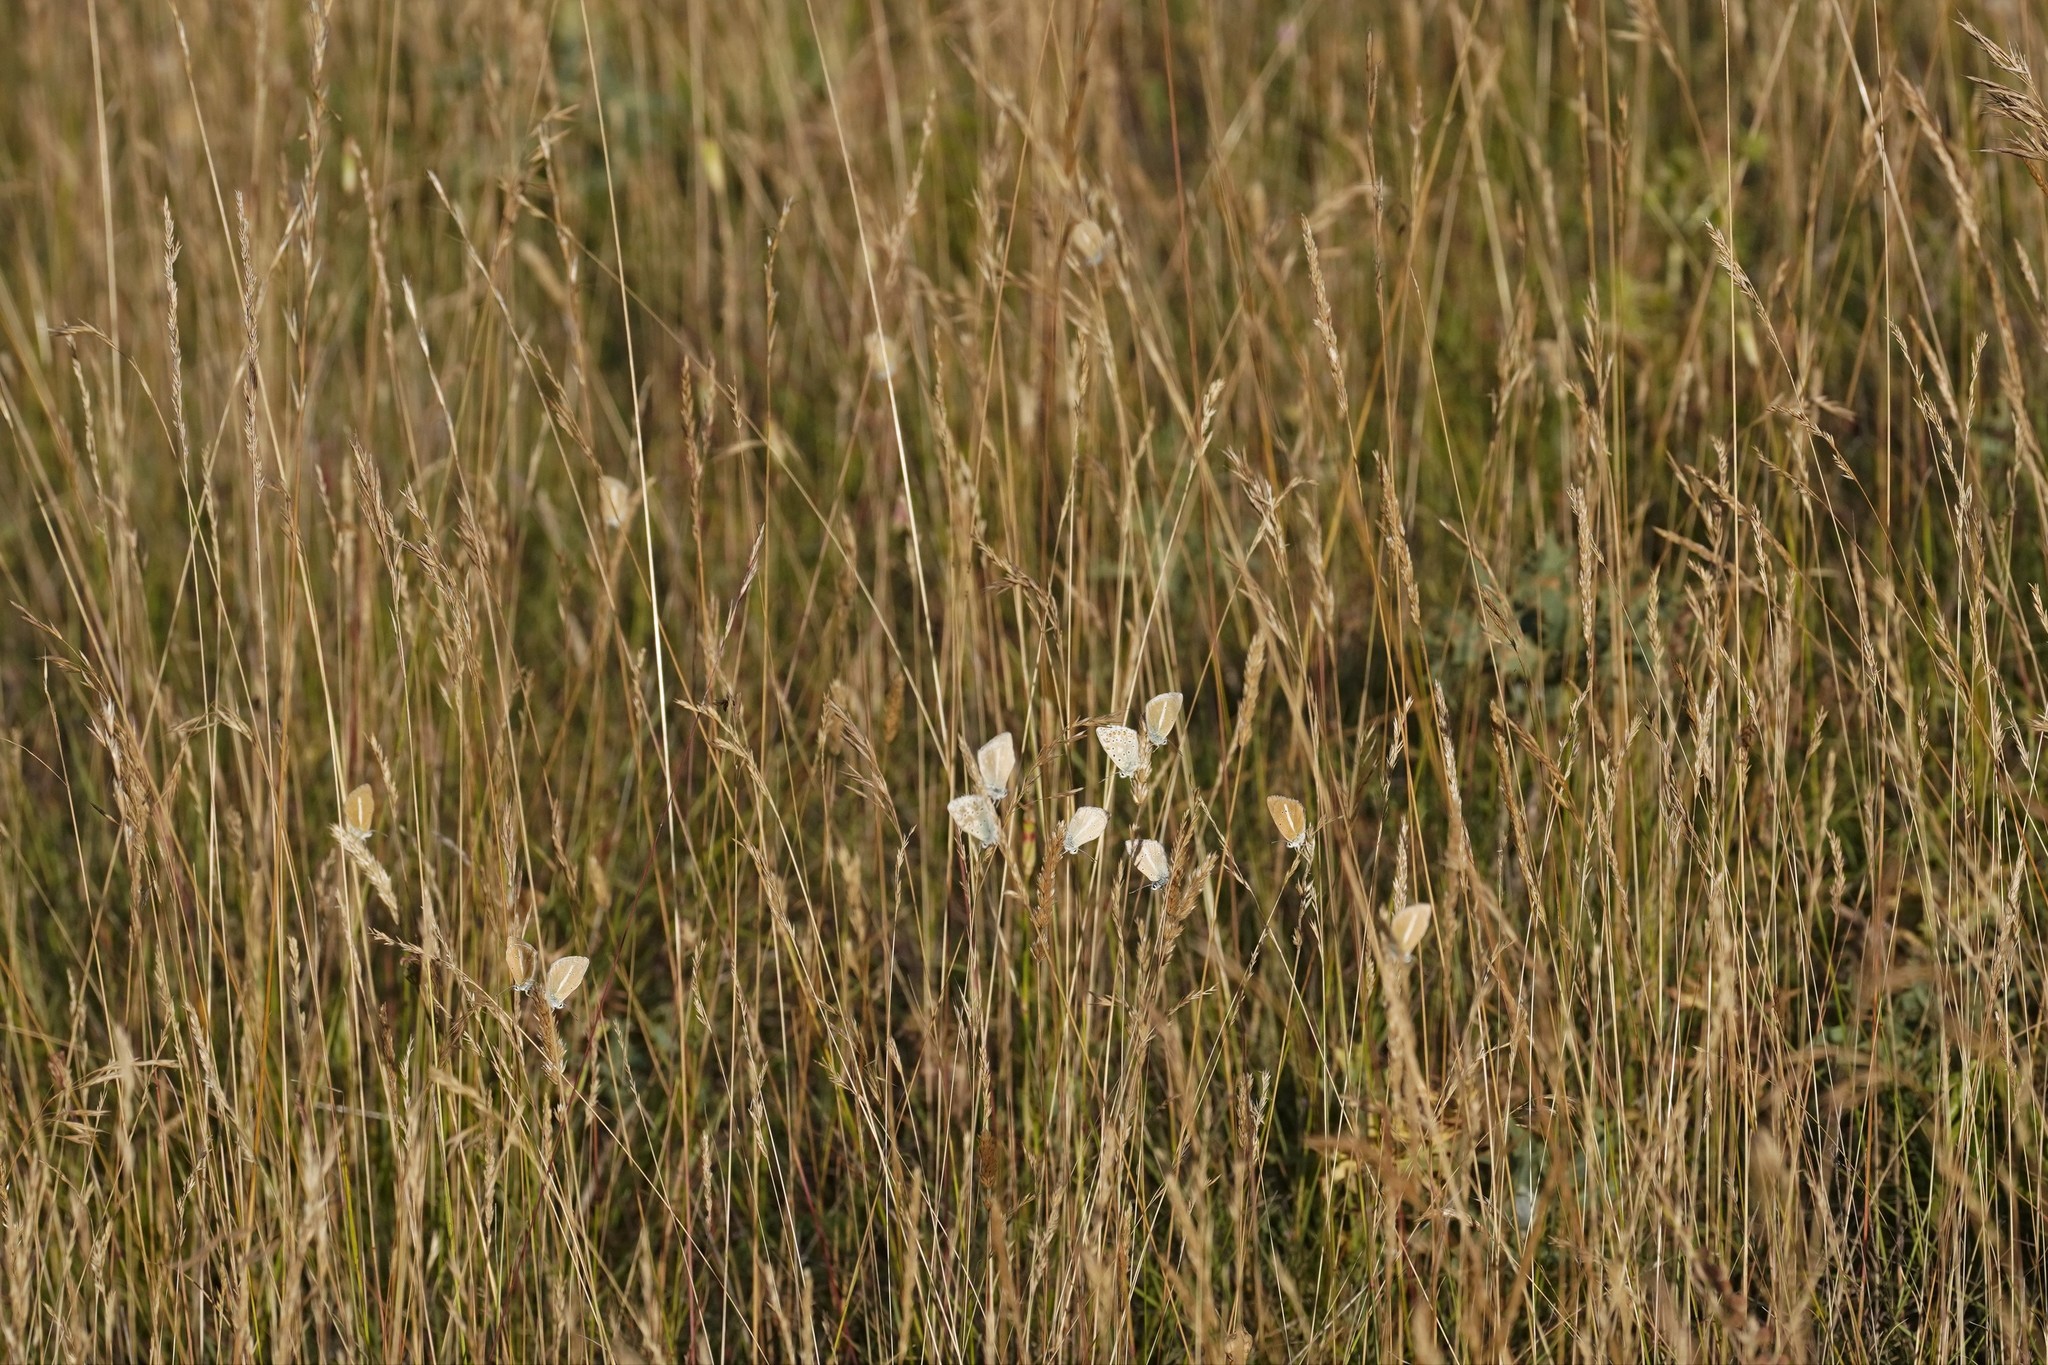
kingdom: Animalia
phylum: Arthropoda
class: Insecta
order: Lepidoptera
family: Lycaenidae
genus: Agrodiaetus
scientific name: Agrodiaetus damon
